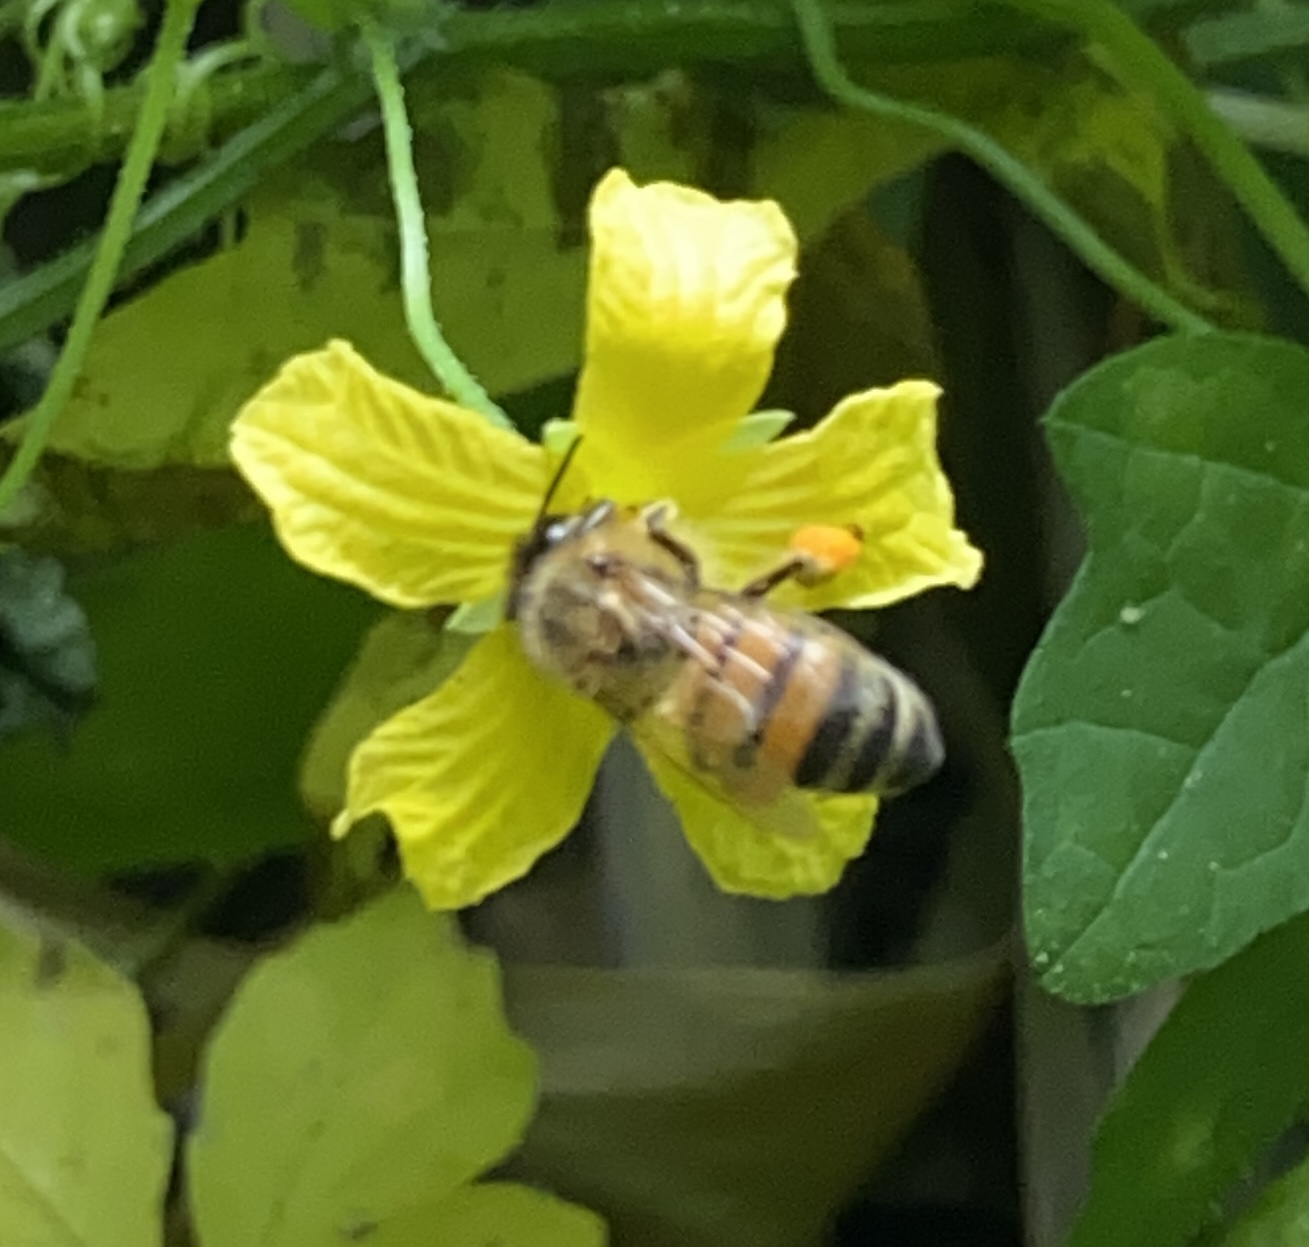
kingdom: Animalia
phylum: Arthropoda
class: Insecta
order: Hymenoptera
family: Apidae
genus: Apis
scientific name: Apis mellifera
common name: Honey bee
